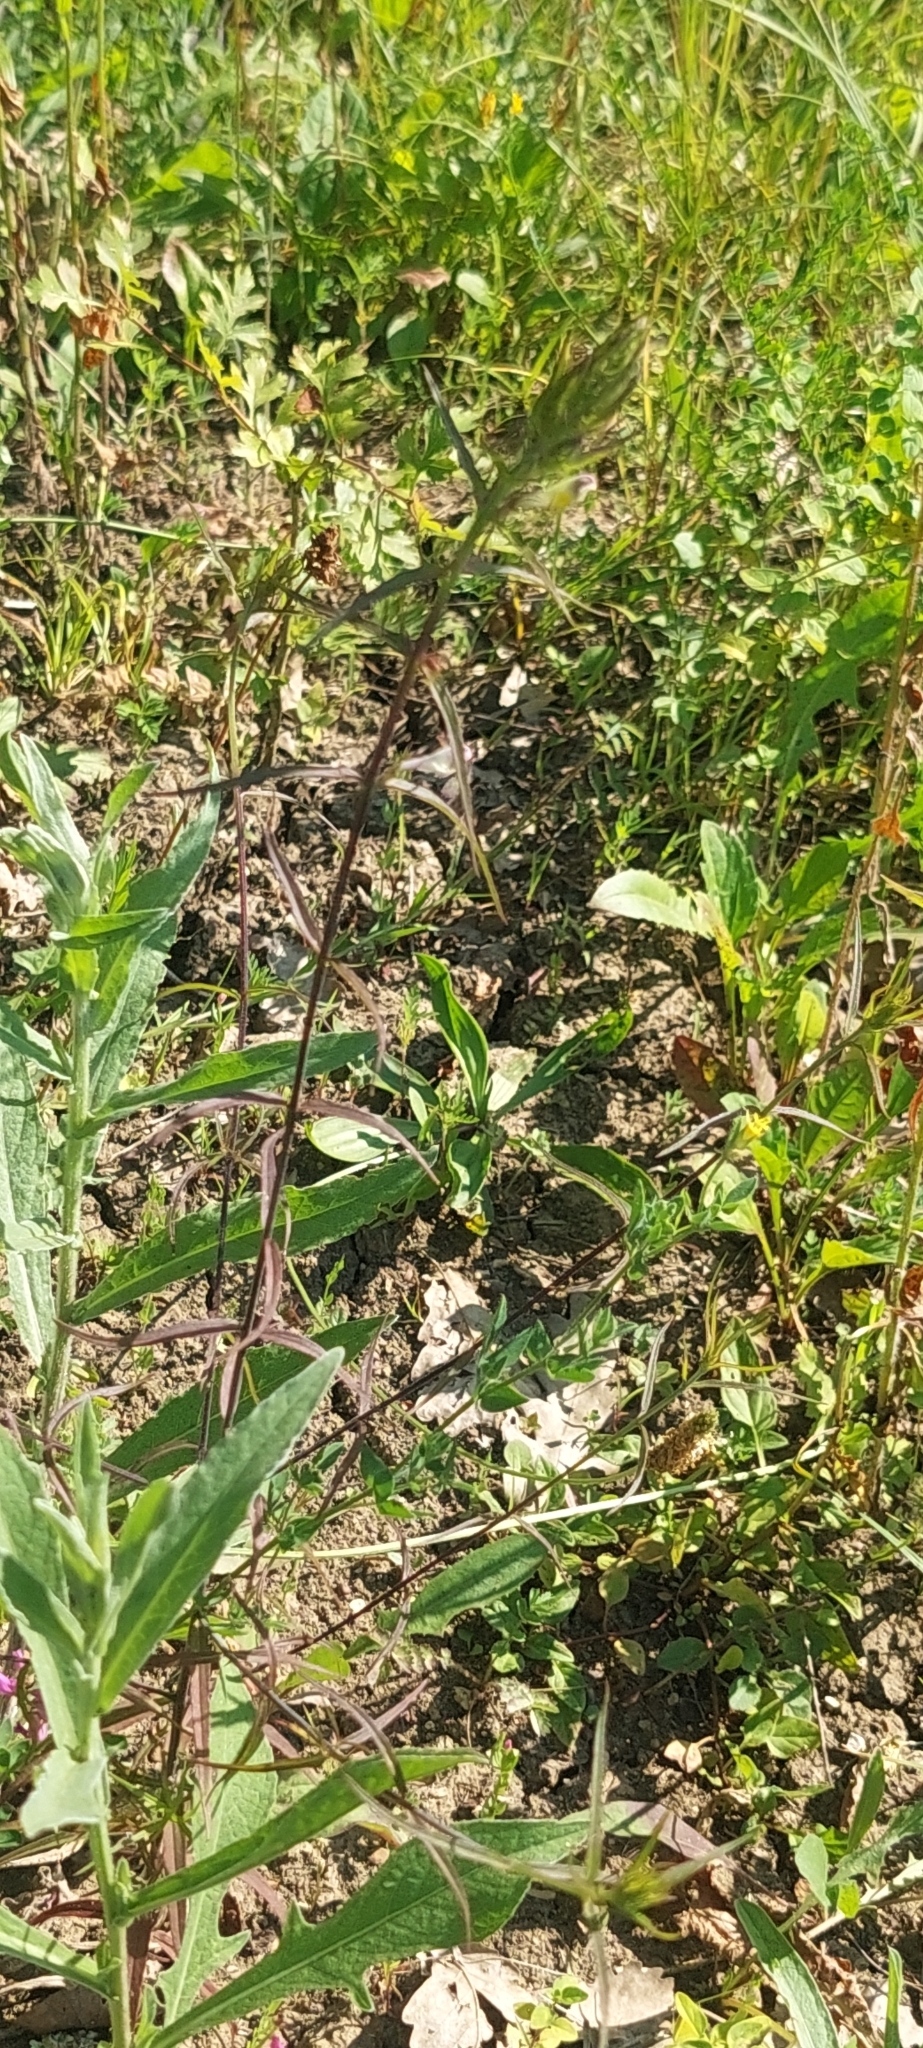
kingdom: Plantae
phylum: Tracheophyta
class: Magnoliopsida
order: Lamiales
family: Orobanchaceae
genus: Melampyrum
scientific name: Melampyrum arvense
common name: Field cow-wheat
